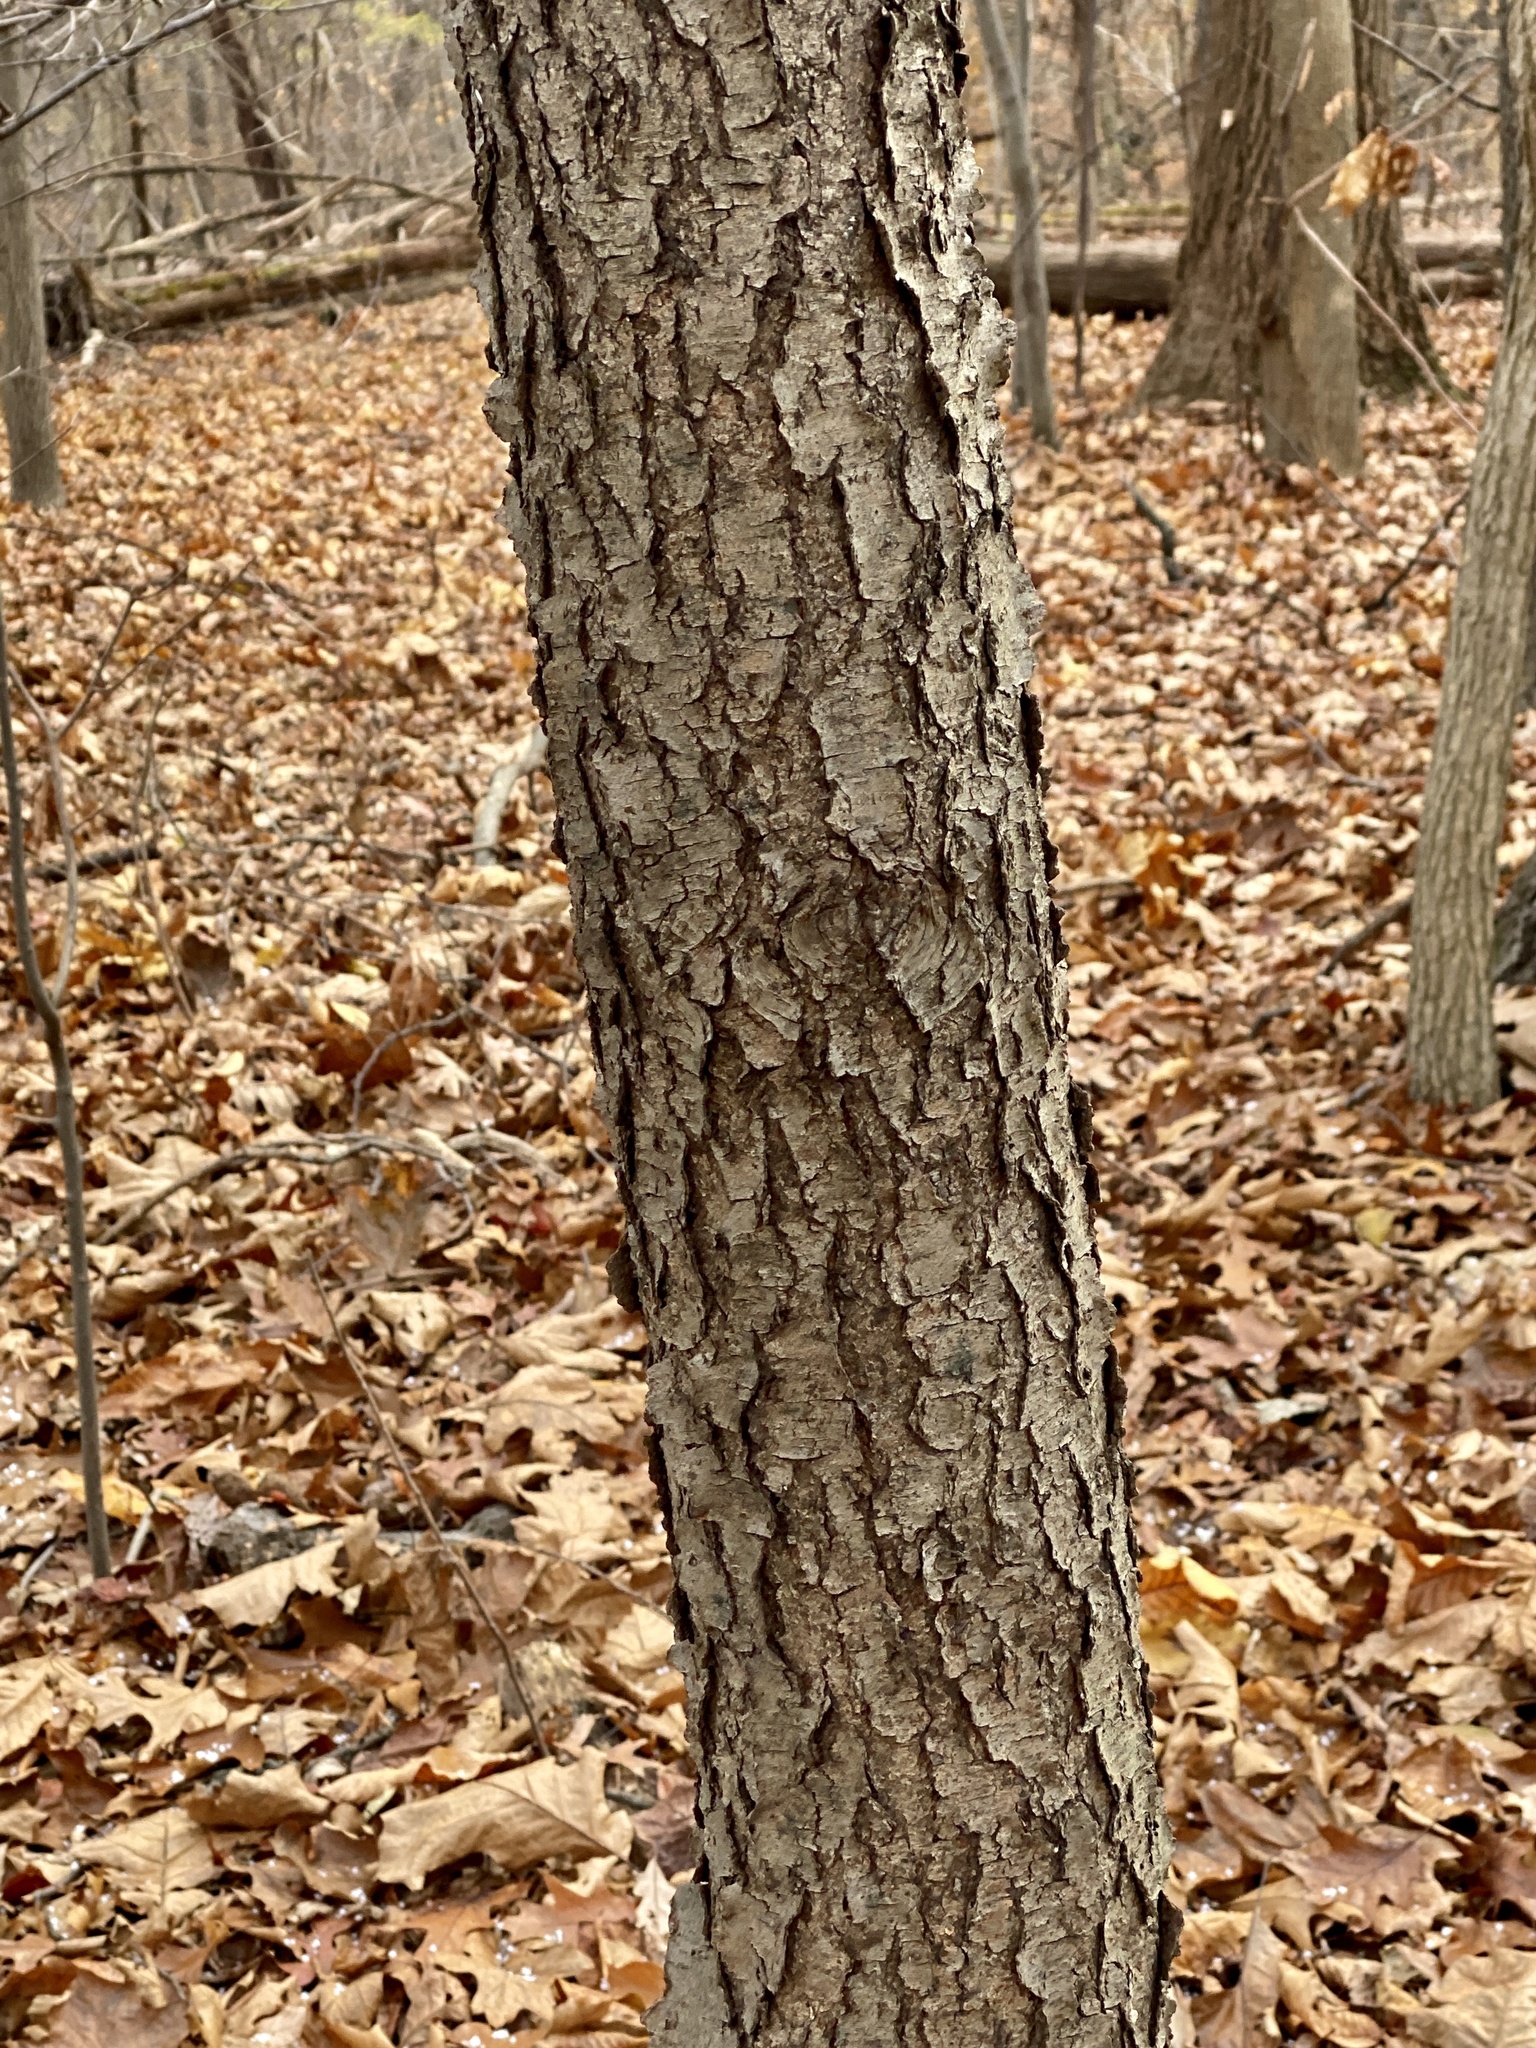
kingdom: Plantae
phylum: Tracheophyta
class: Magnoliopsida
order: Rosales
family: Rosaceae
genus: Prunus
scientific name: Prunus serotina
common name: Black cherry
